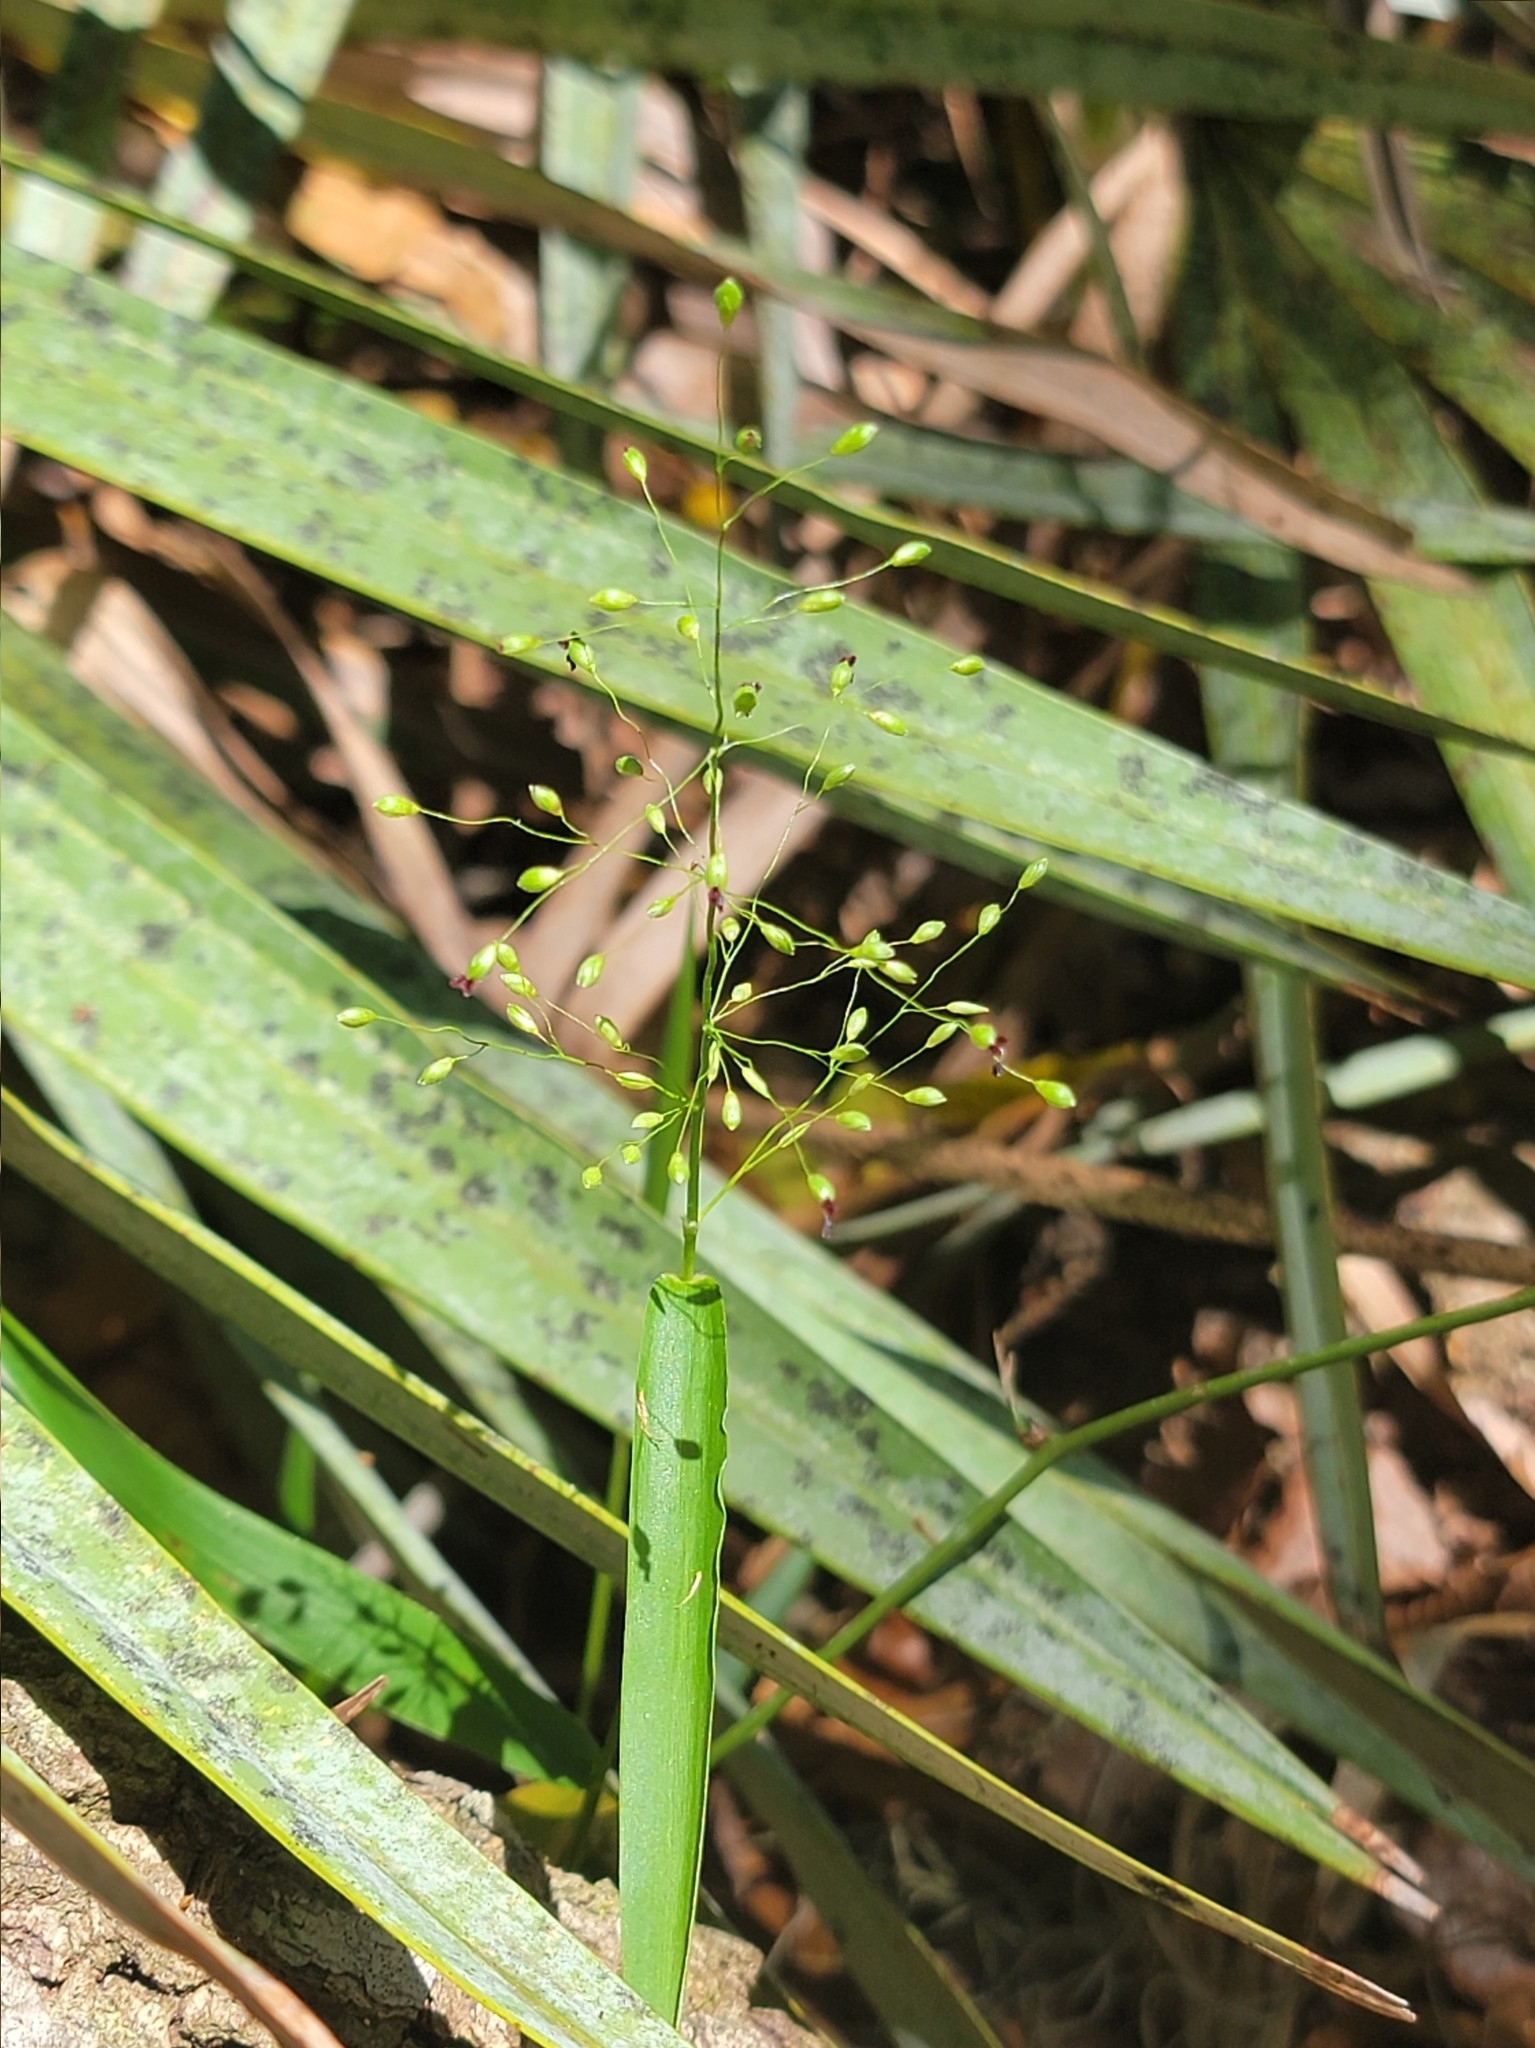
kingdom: Plantae
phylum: Tracheophyta
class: Liliopsida
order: Poales
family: Poaceae
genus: Dichanthelium
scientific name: Dichanthelium equilaterale
